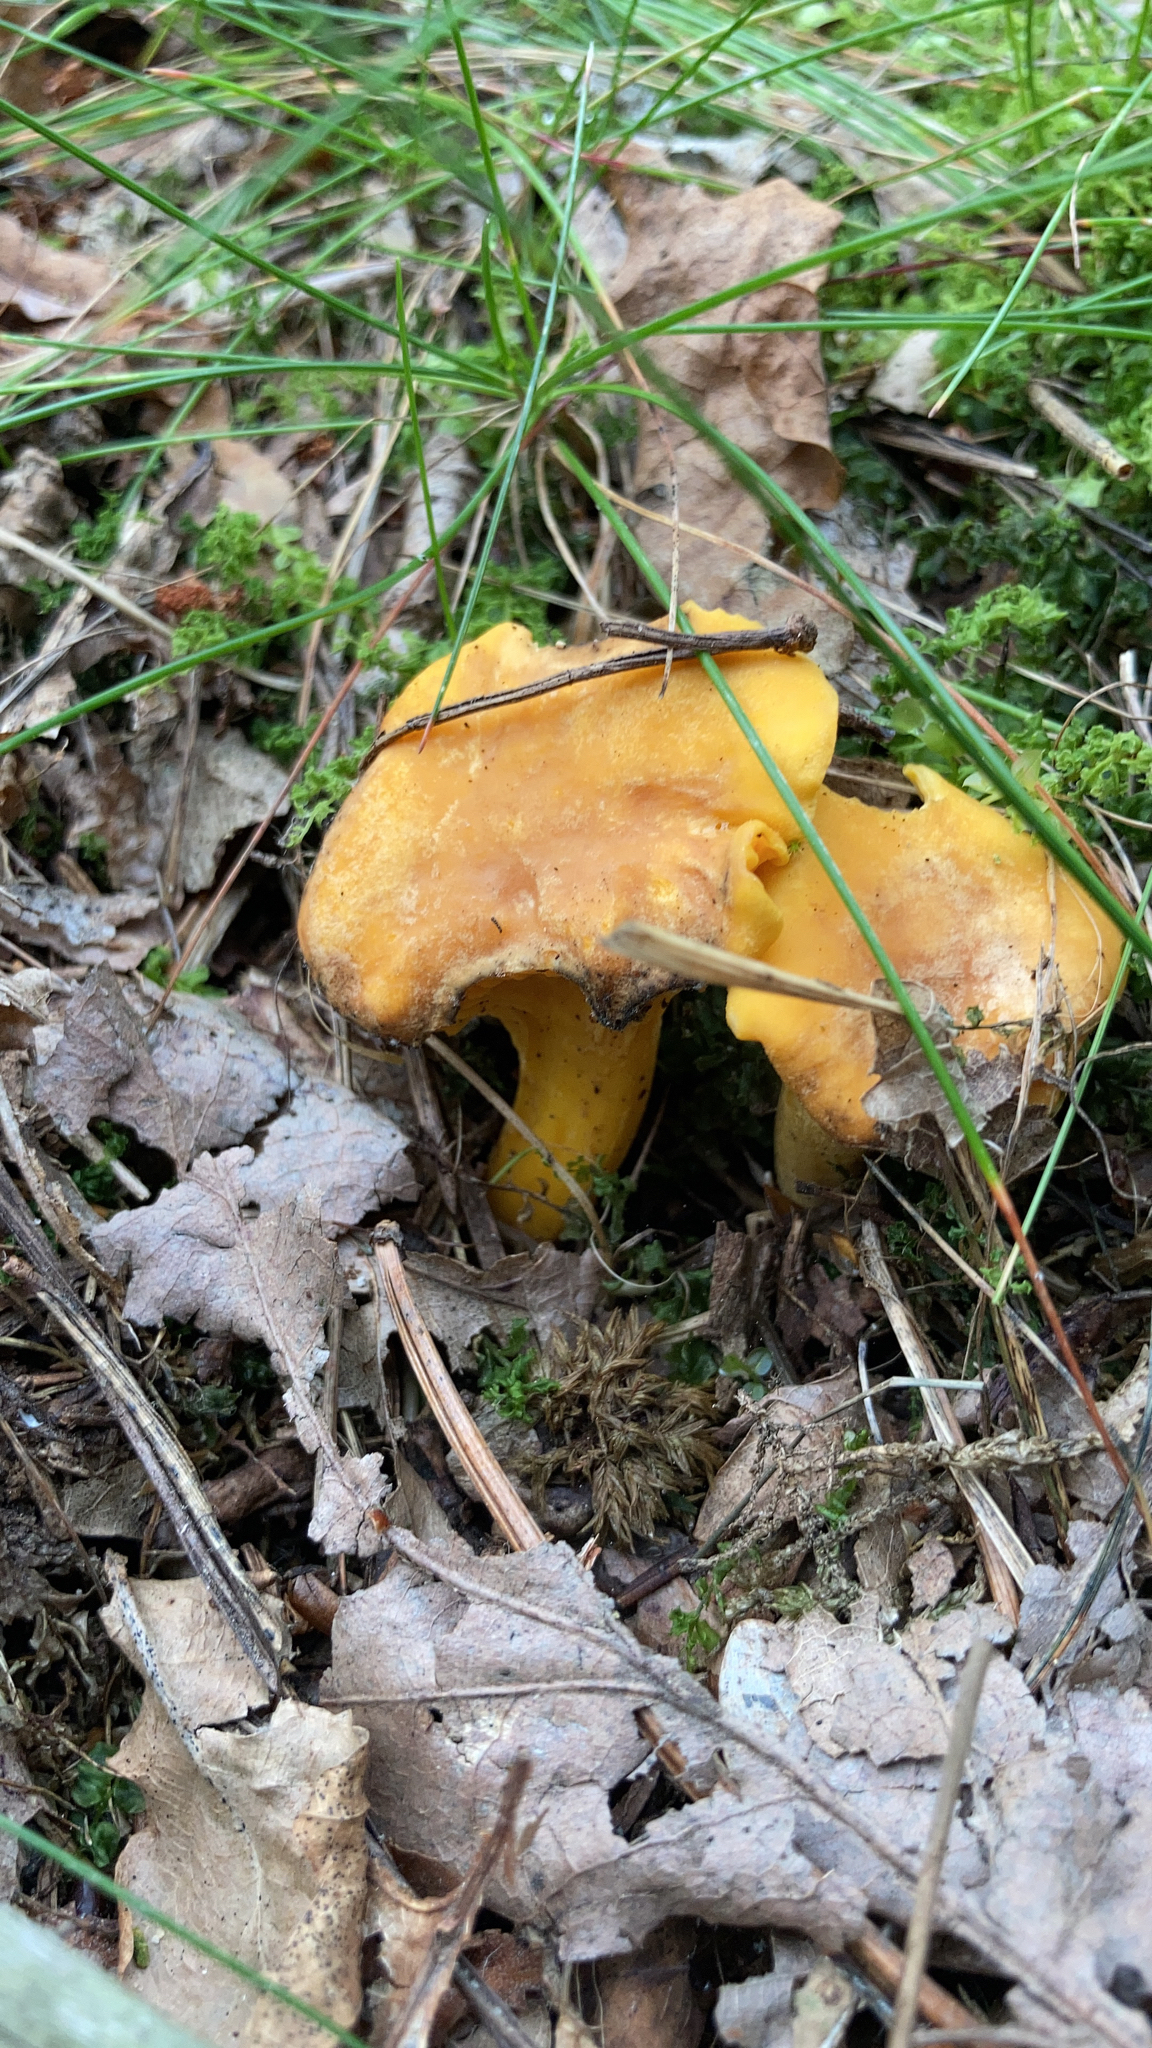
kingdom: Fungi
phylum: Basidiomycota
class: Agaricomycetes
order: Cantharellales
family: Hydnaceae
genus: Cantharellus
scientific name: Cantharellus cibarius
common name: Chanterelle
